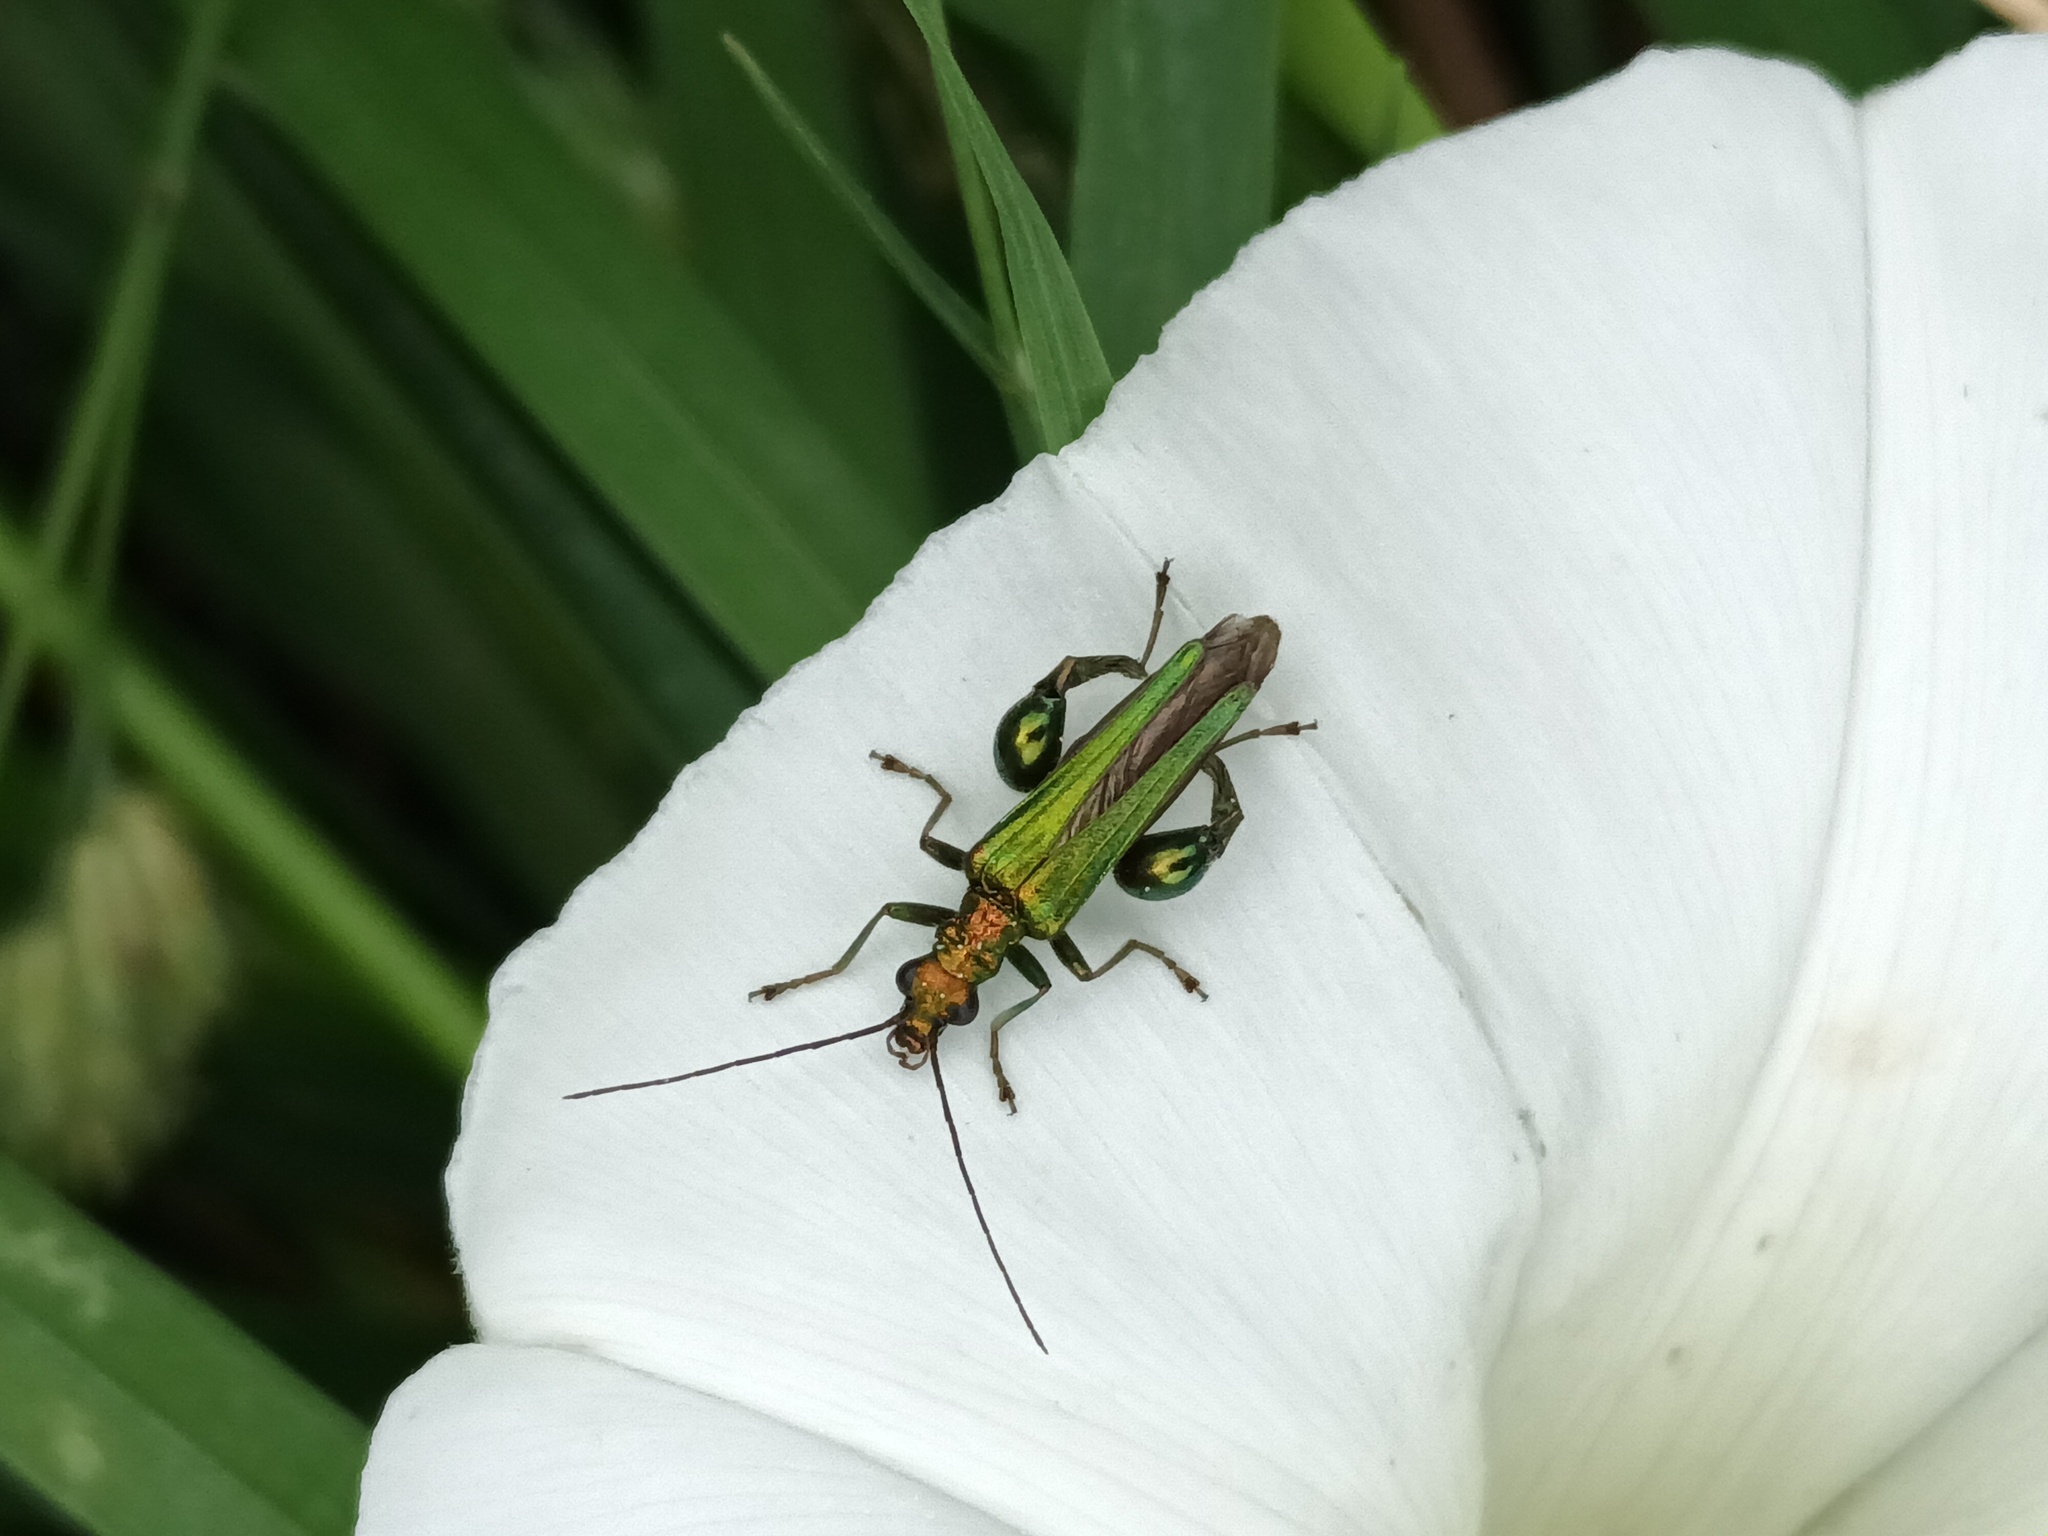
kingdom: Animalia
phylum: Arthropoda
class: Insecta
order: Coleoptera
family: Oedemeridae
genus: Oedemera
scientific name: Oedemera nobilis
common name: Swollen-thighed beetle
